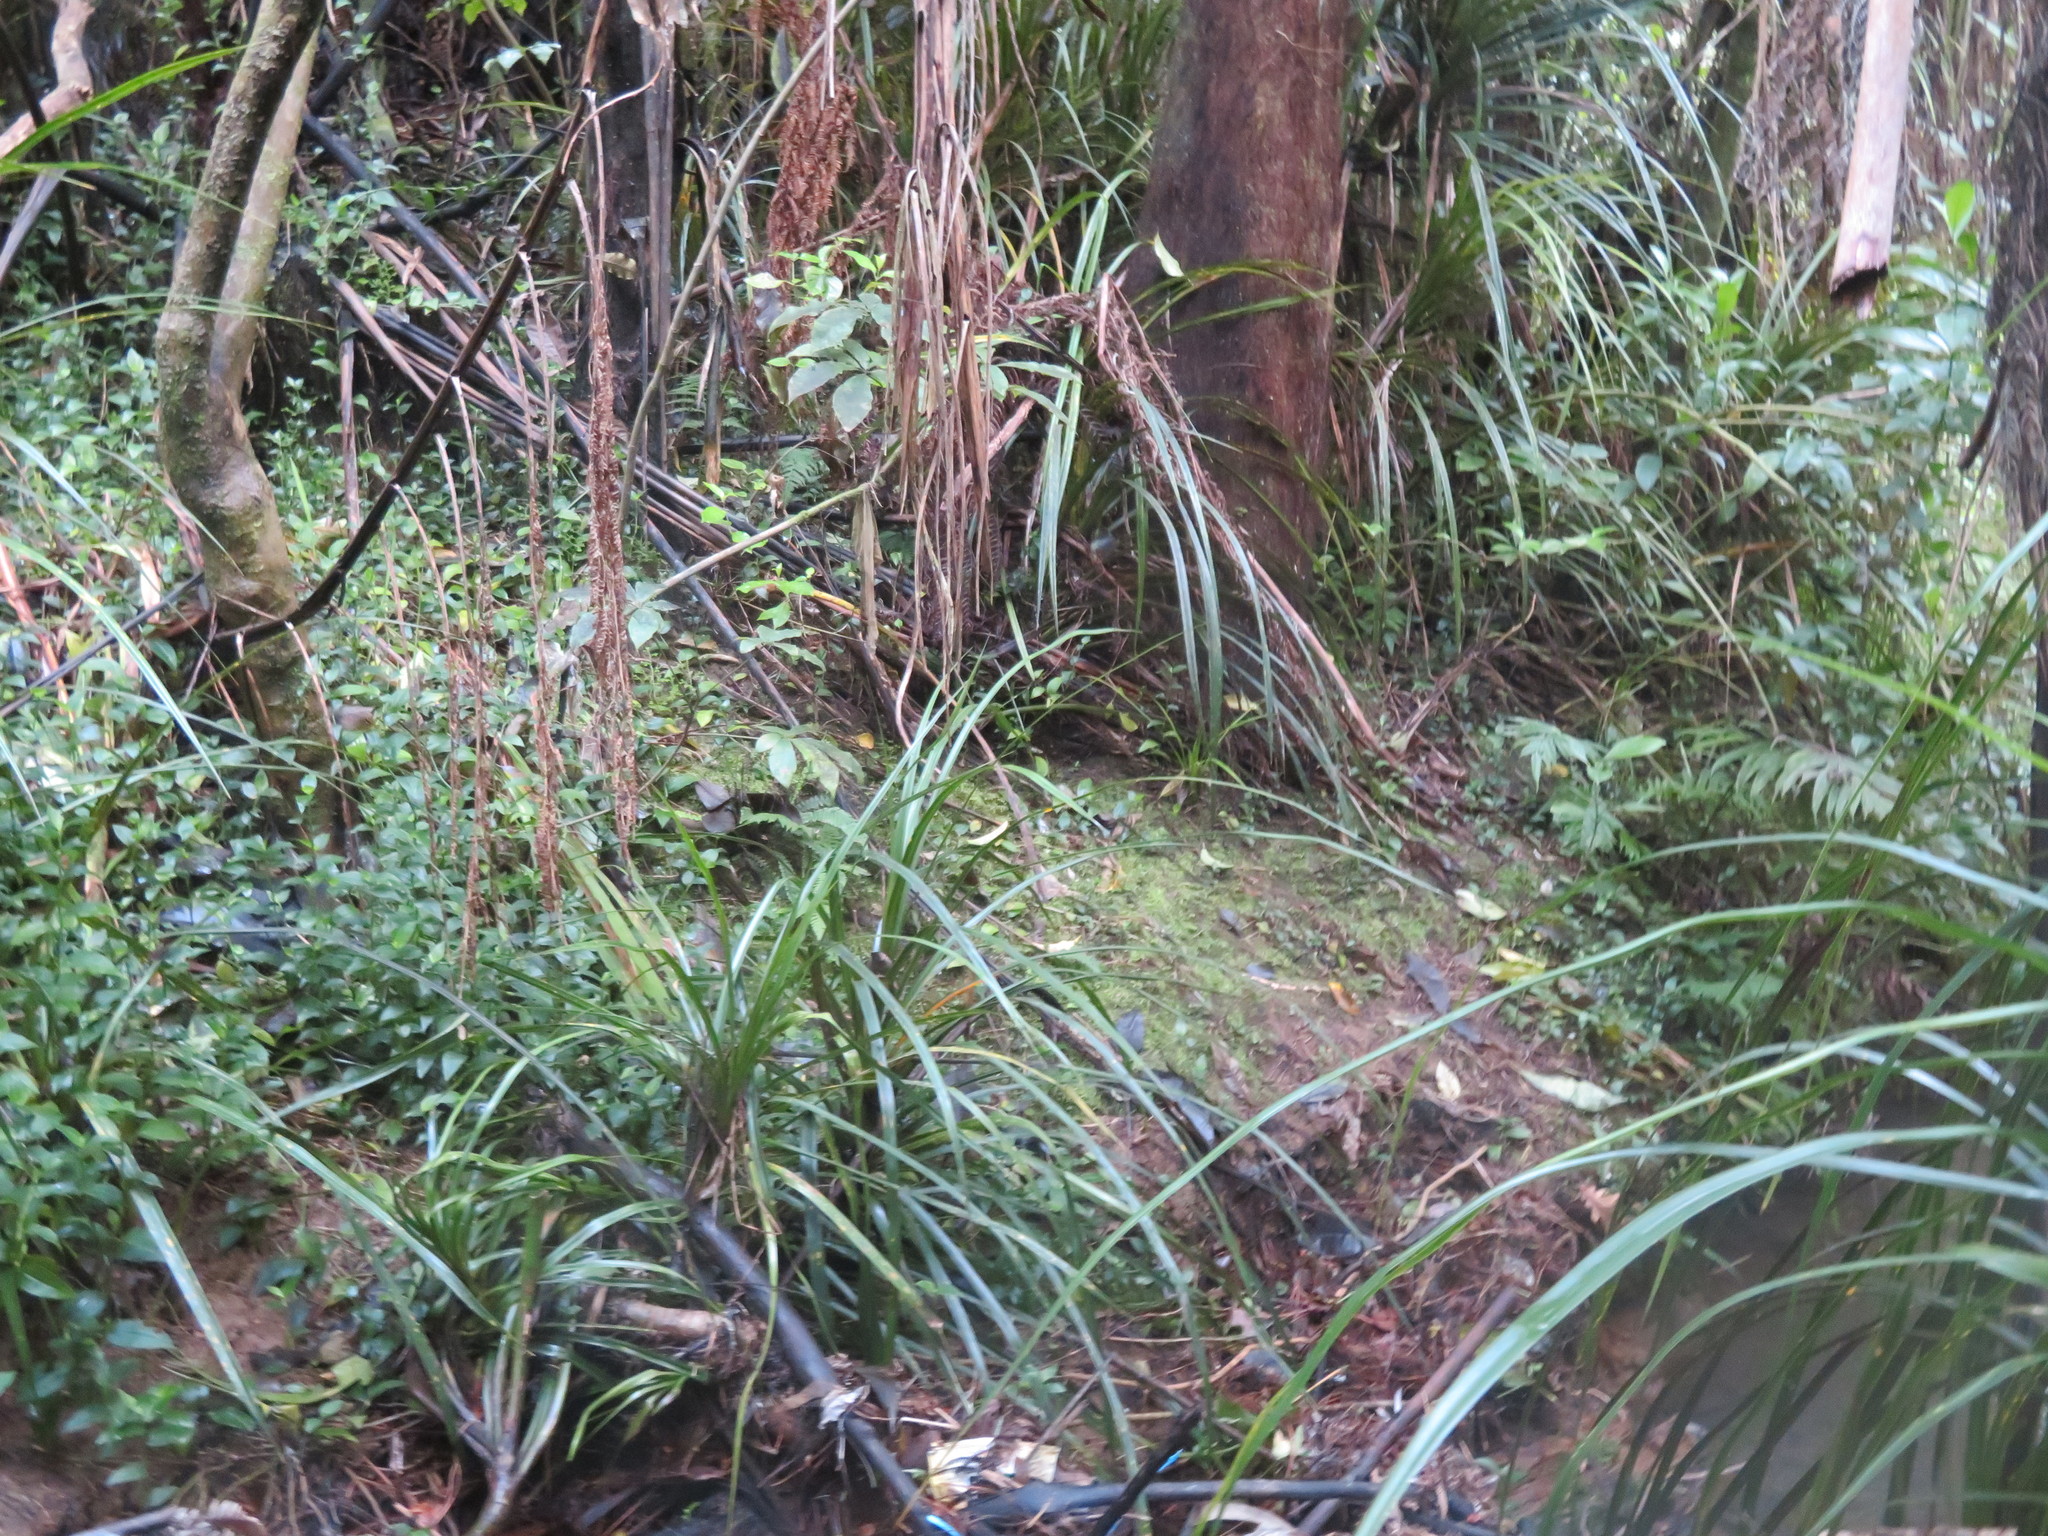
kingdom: Plantae
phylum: Tracheophyta
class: Liliopsida
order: Commelinales
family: Commelinaceae
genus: Tradescantia
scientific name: Tradescantia fluminensis
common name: Wandering-jew
